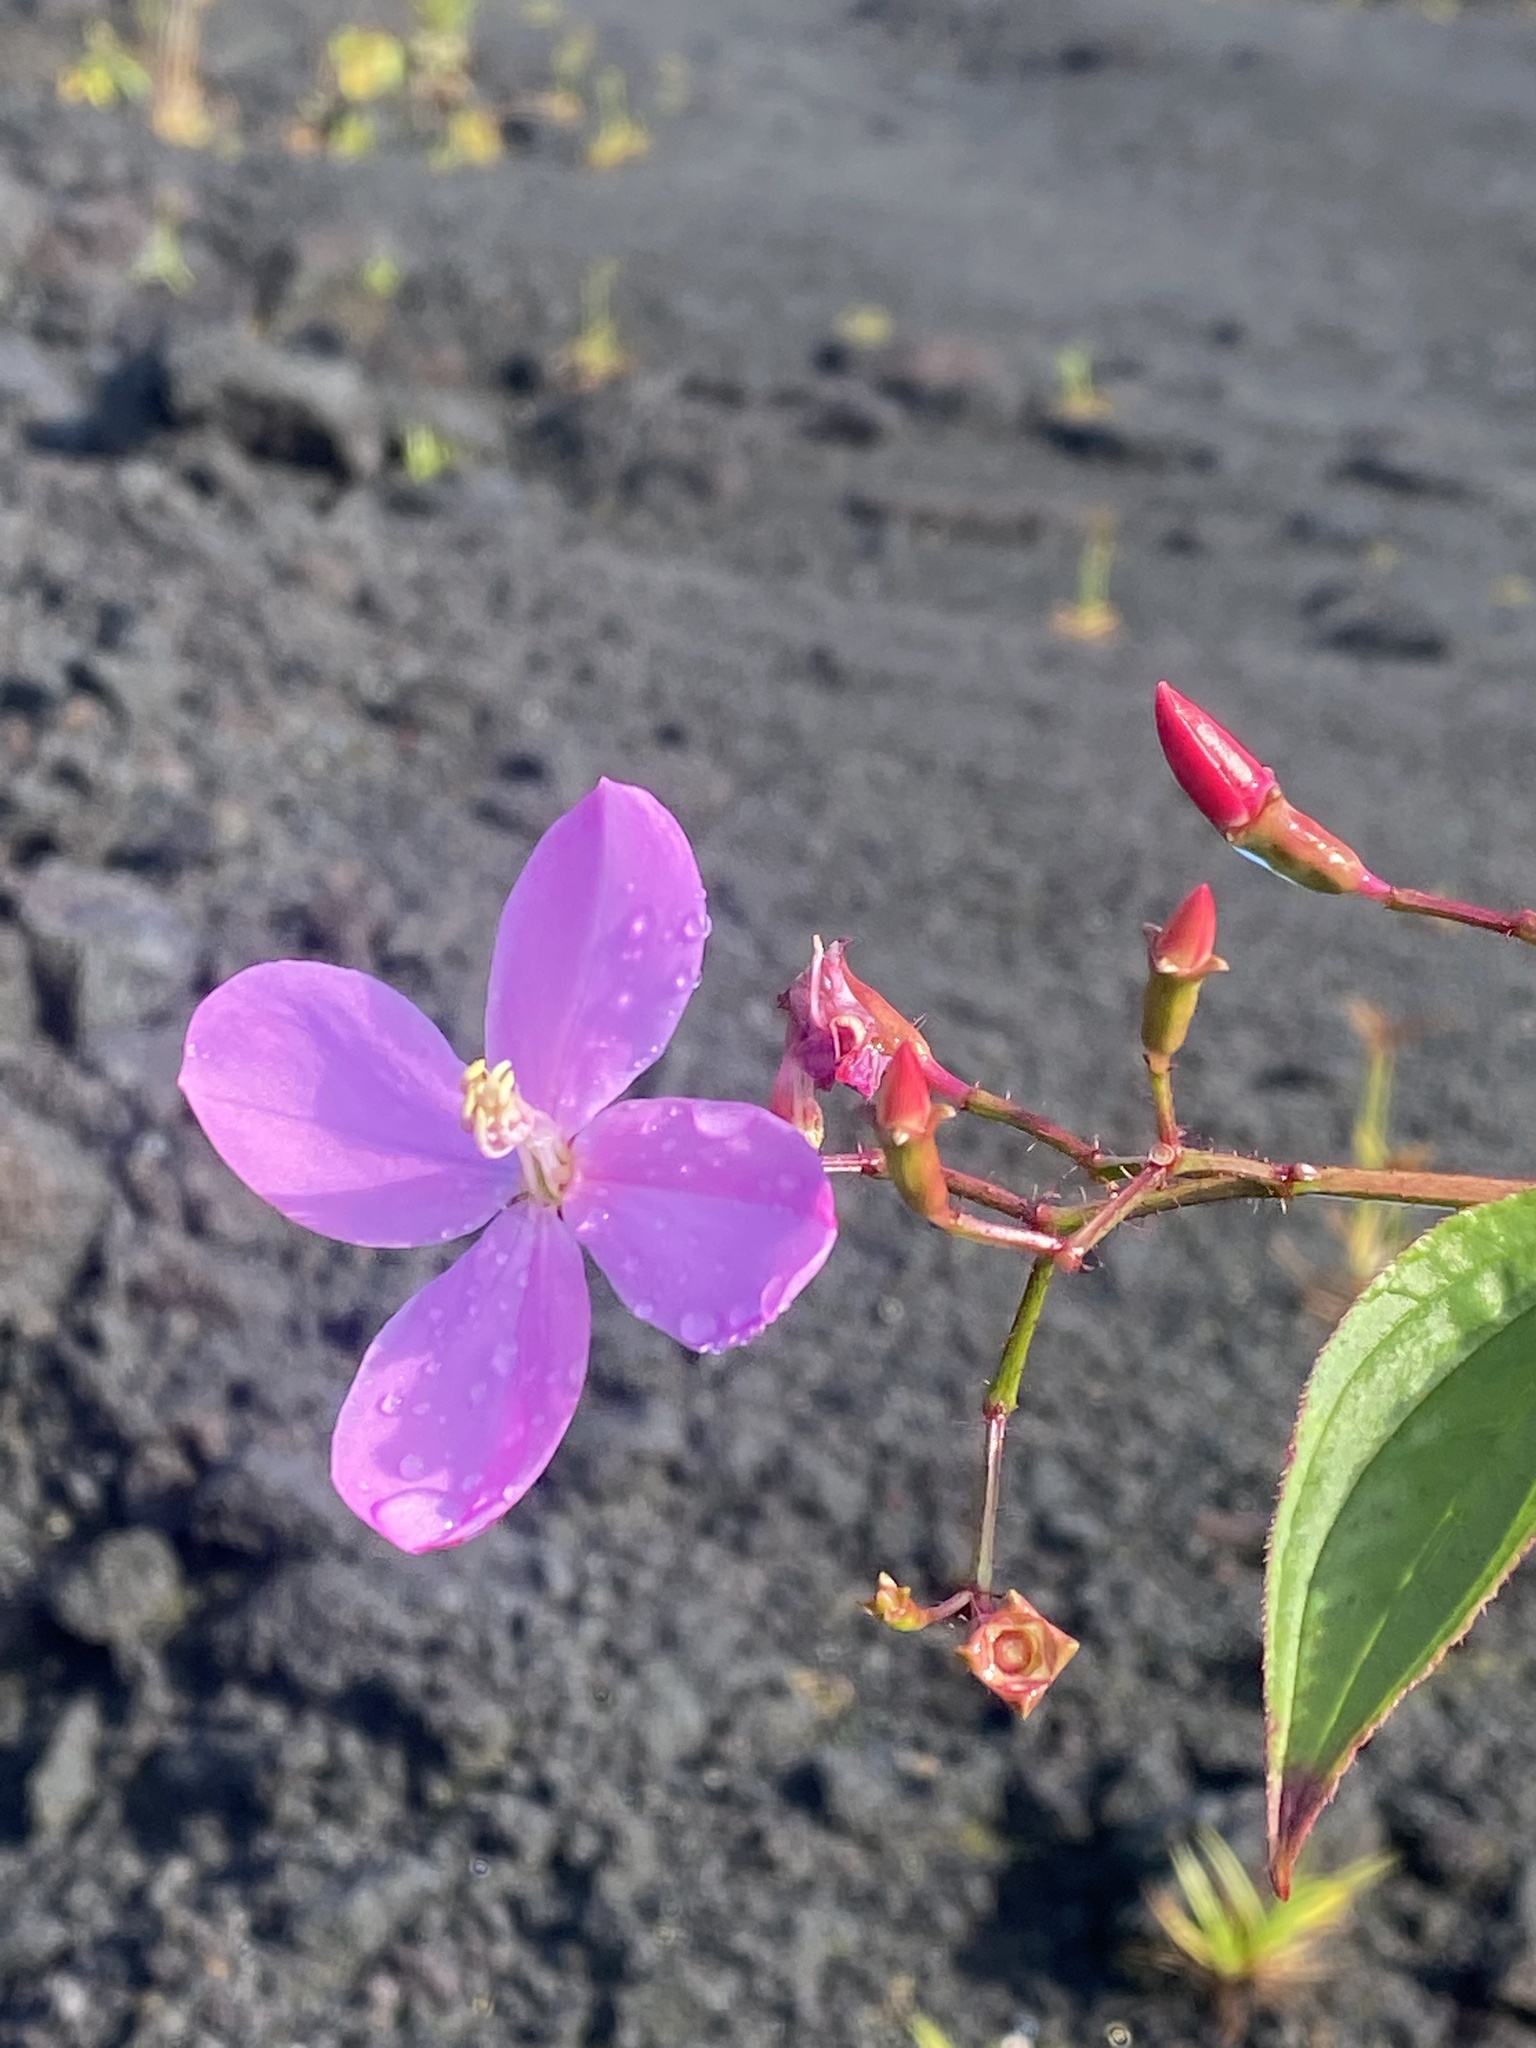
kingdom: Plantae
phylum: Tracheophyta
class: Magnoliopsida
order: Myrtales
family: Melastomataceae
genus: Arthrostemma
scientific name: Arthrostemma ciliatum
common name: Everblooming eavender
